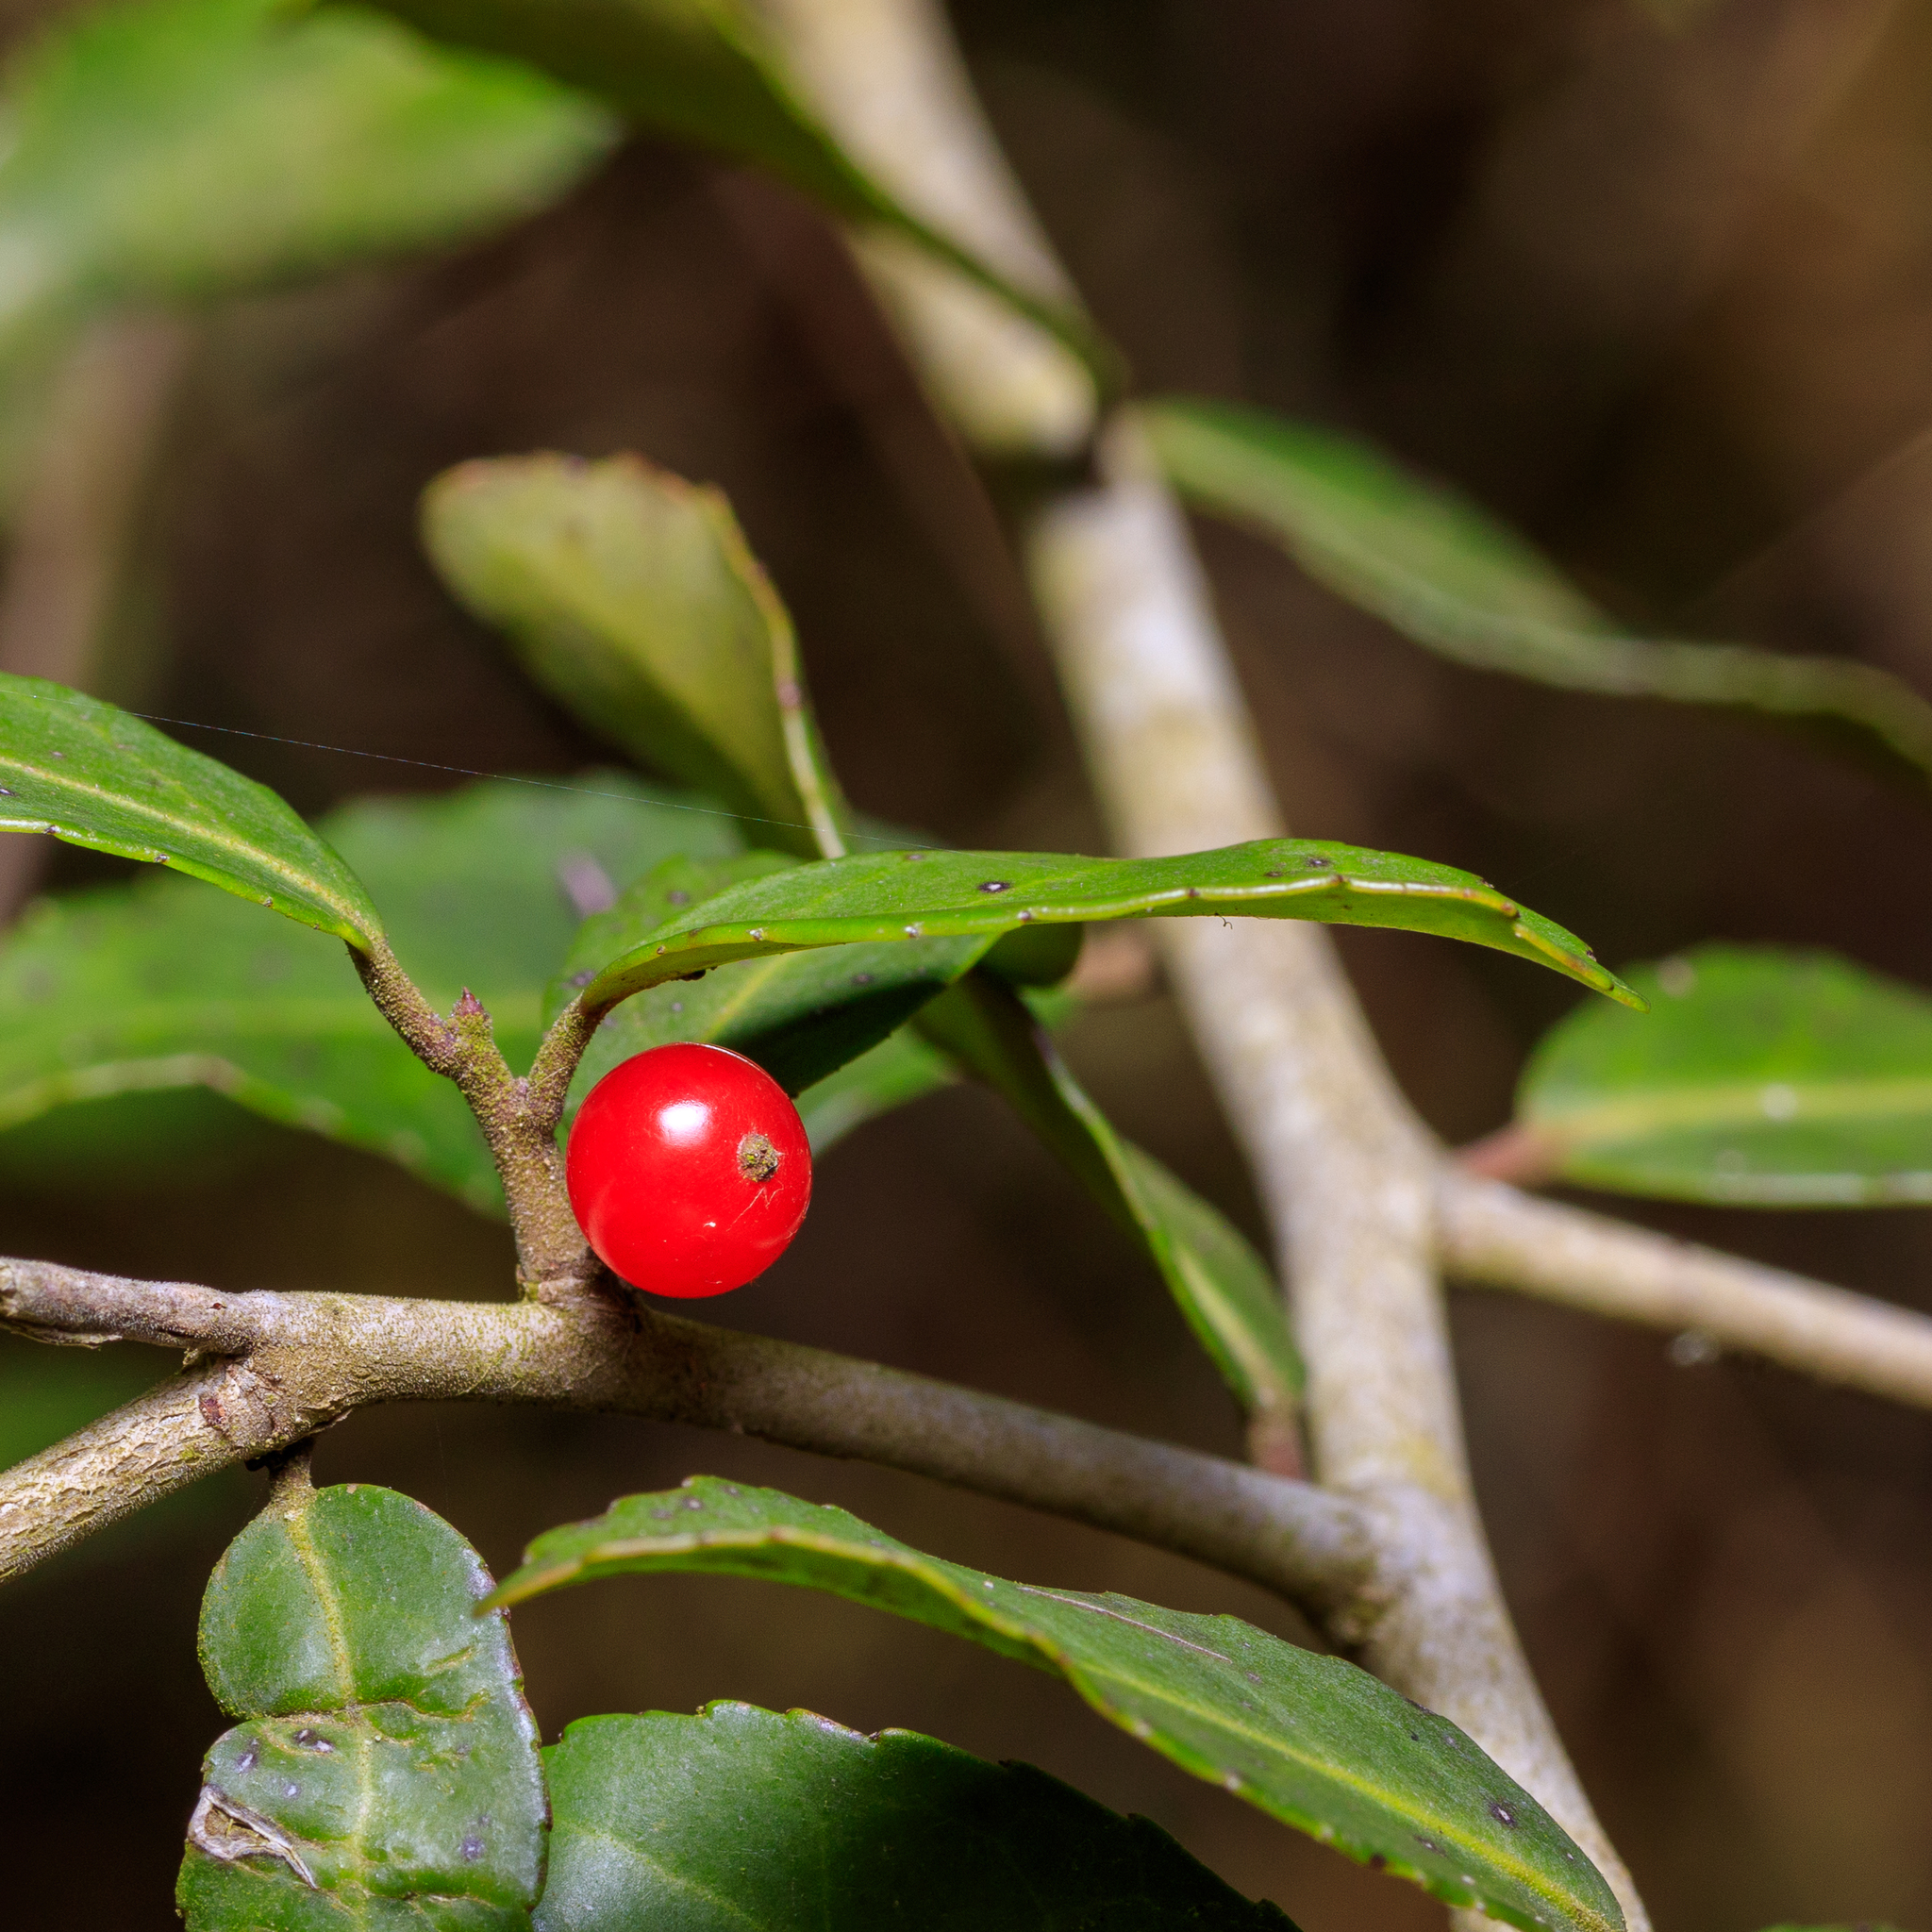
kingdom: Plantae
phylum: Tracheophyta
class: Magnoliopsida
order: Aquifoliales
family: Aquifoliaceae
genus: Ilex
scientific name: Ilex vomitoria
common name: Yaupon holly
